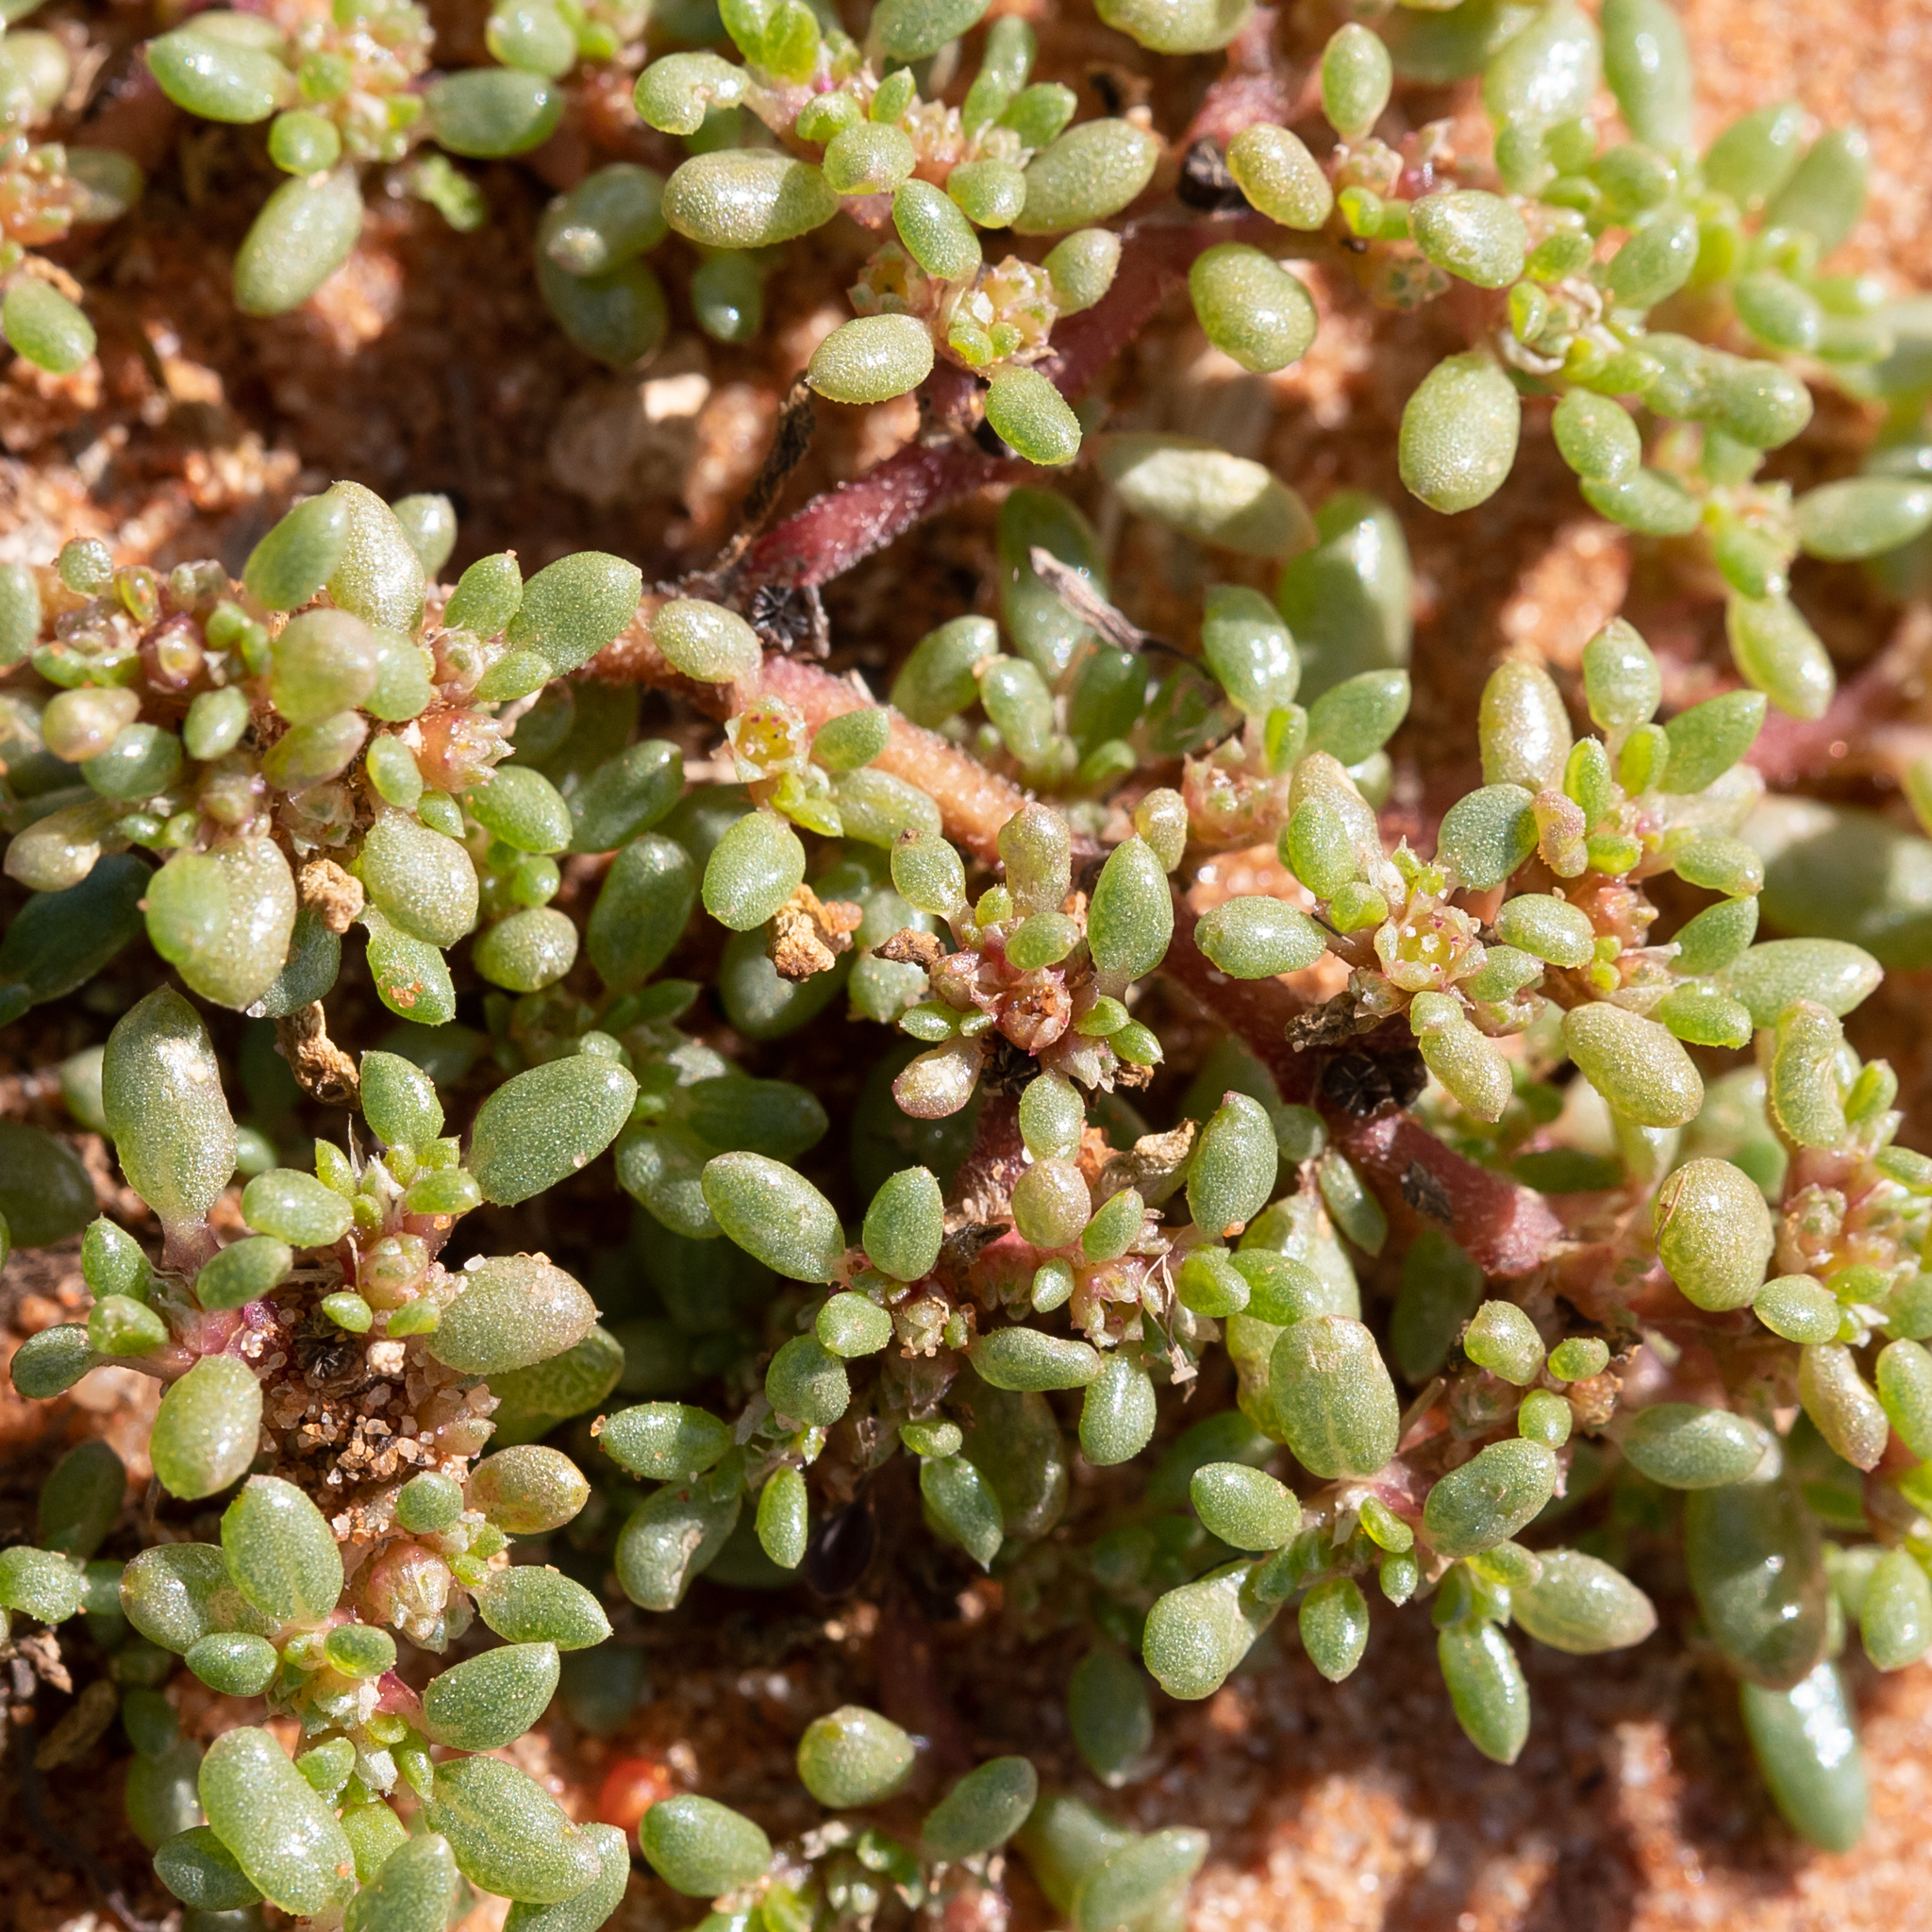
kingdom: Plantae
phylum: Tracheophyta
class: Magnoliopsida
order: Caryophyllales
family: Aizoaceae
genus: Trianthema
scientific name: Trianthema triquetrum
